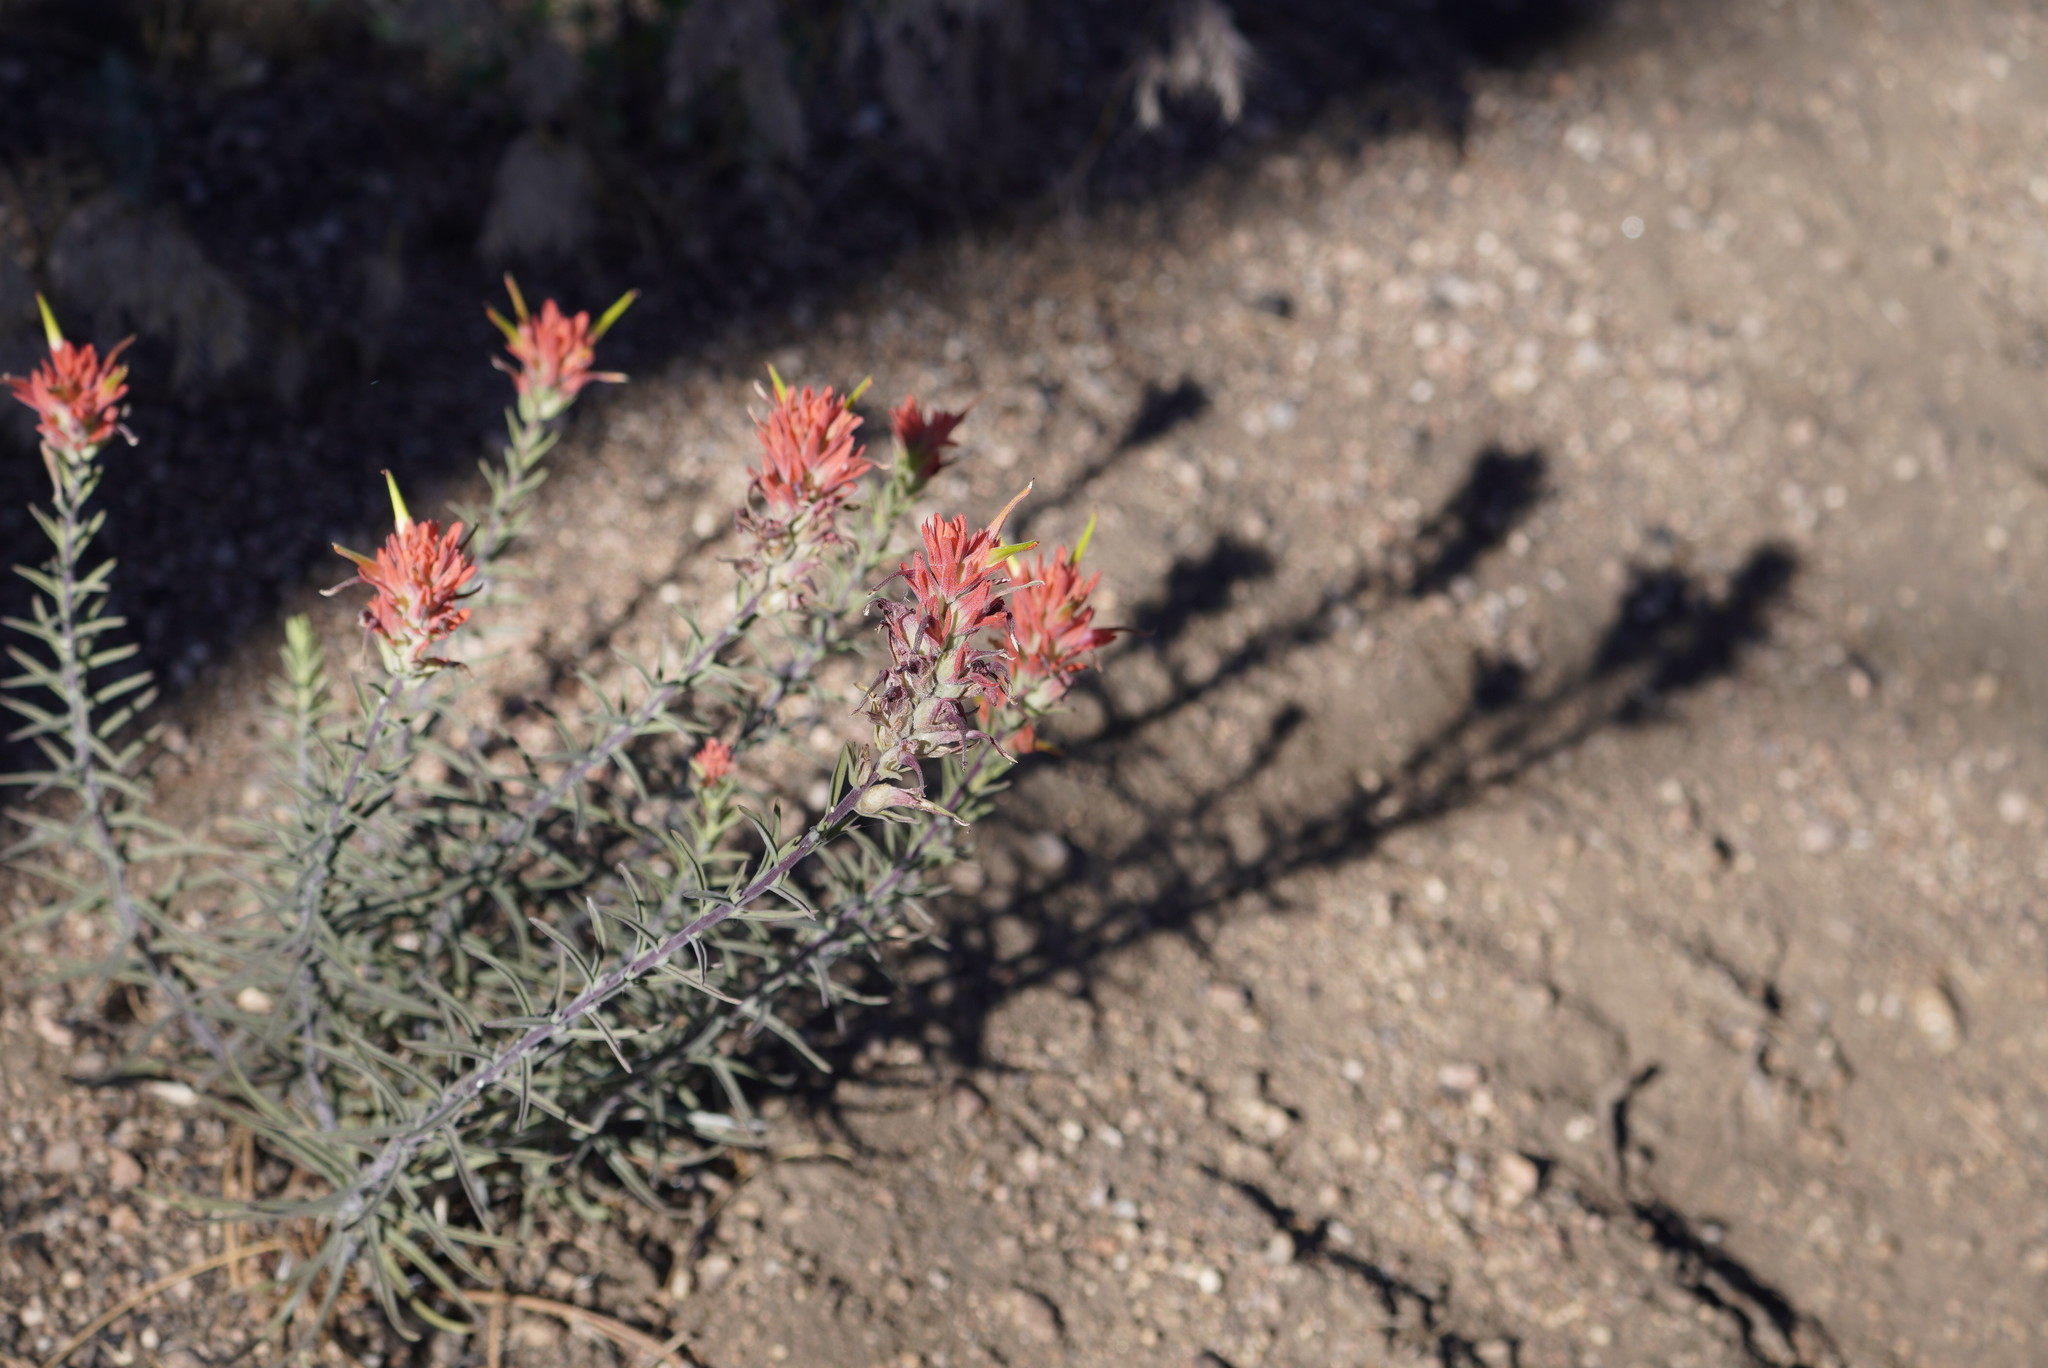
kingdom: Plantae
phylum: Tracheophyta
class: Magnoliopsida
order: Lamiales
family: Orobanchaceae
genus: Castilleja
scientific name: Castilleja linariifolia
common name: Wyoming paintbrush
